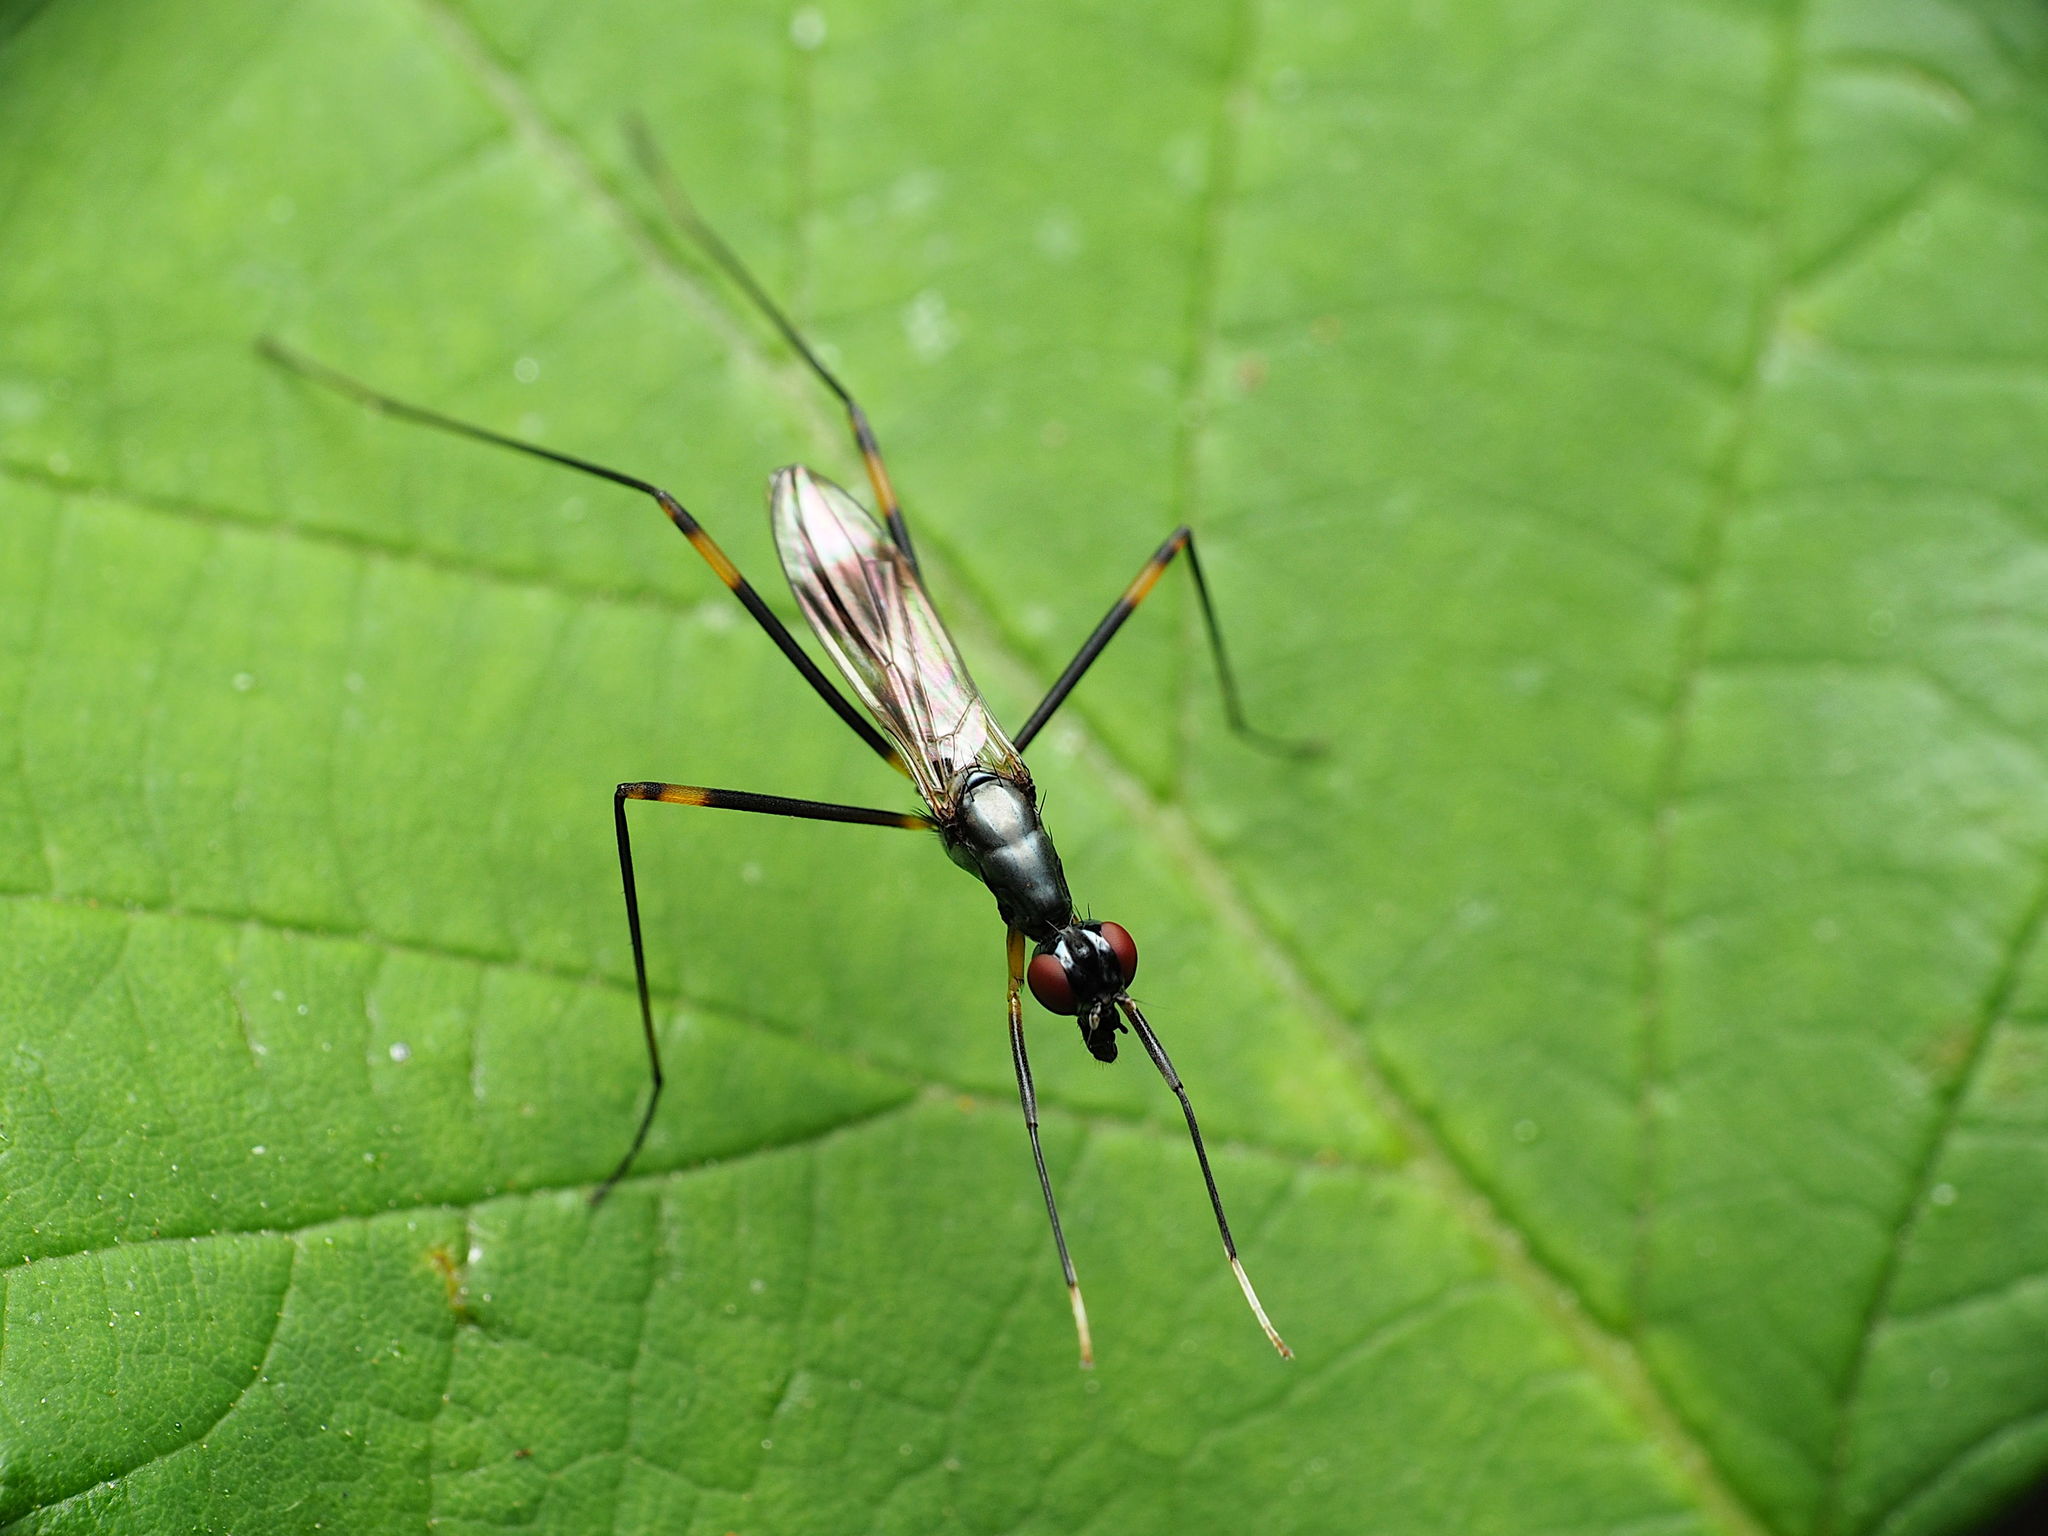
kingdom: Animalia
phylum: Arthropoda
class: Insecta
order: Diptera
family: Micropezidae
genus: Rainieria
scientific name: Rainieria antennaepes
